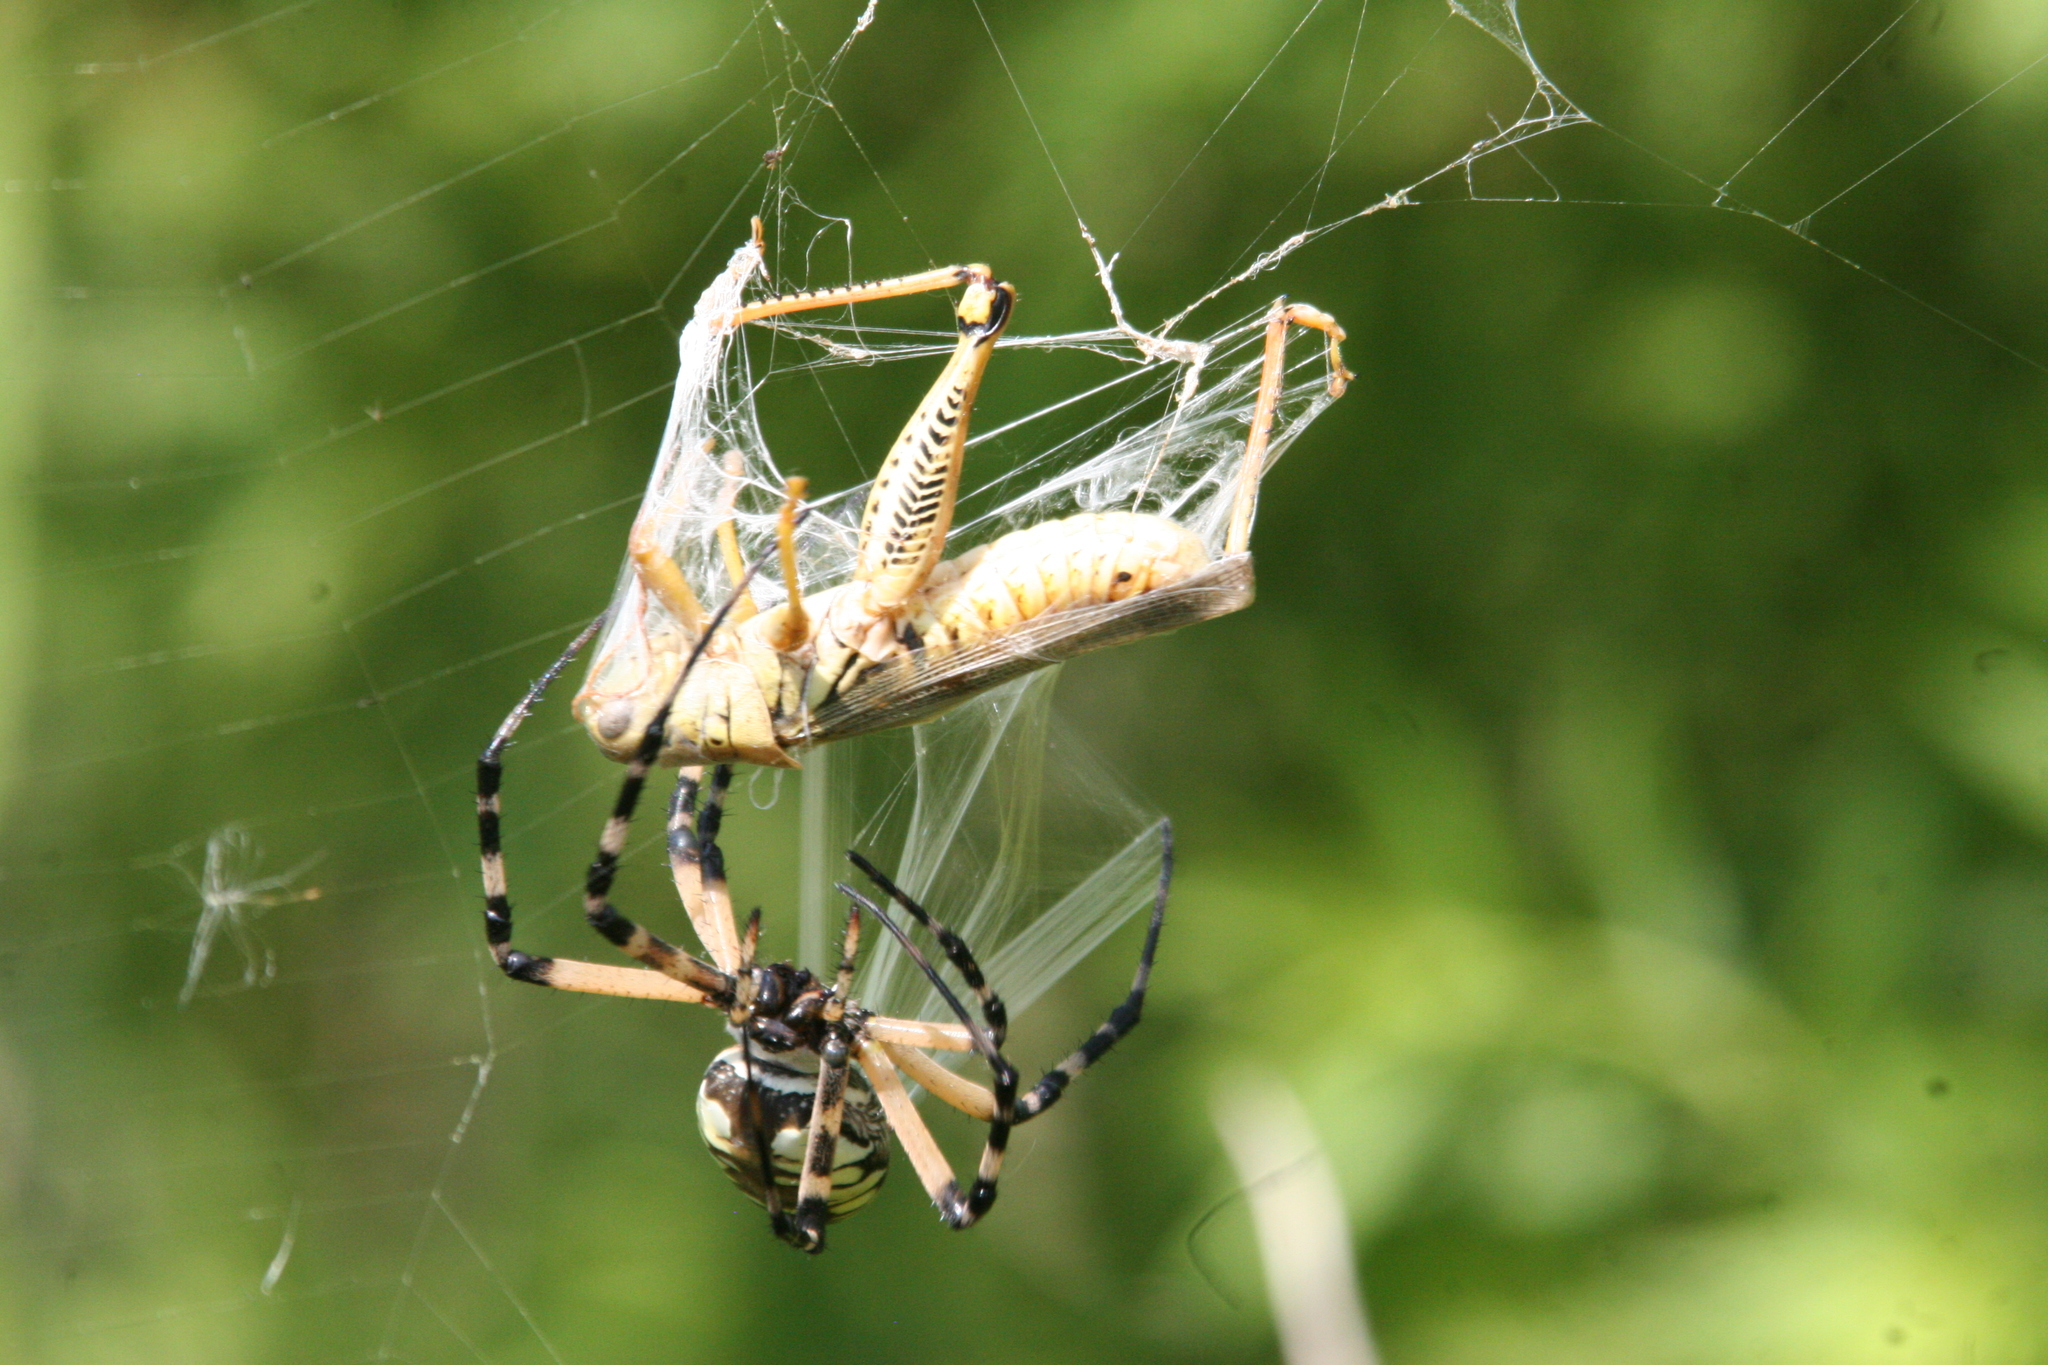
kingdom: Animalia
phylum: Arthropoda
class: Arachnida
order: Araneae
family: Araneidae
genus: Argiope
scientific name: Argiope aurantia
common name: Orb weavers
